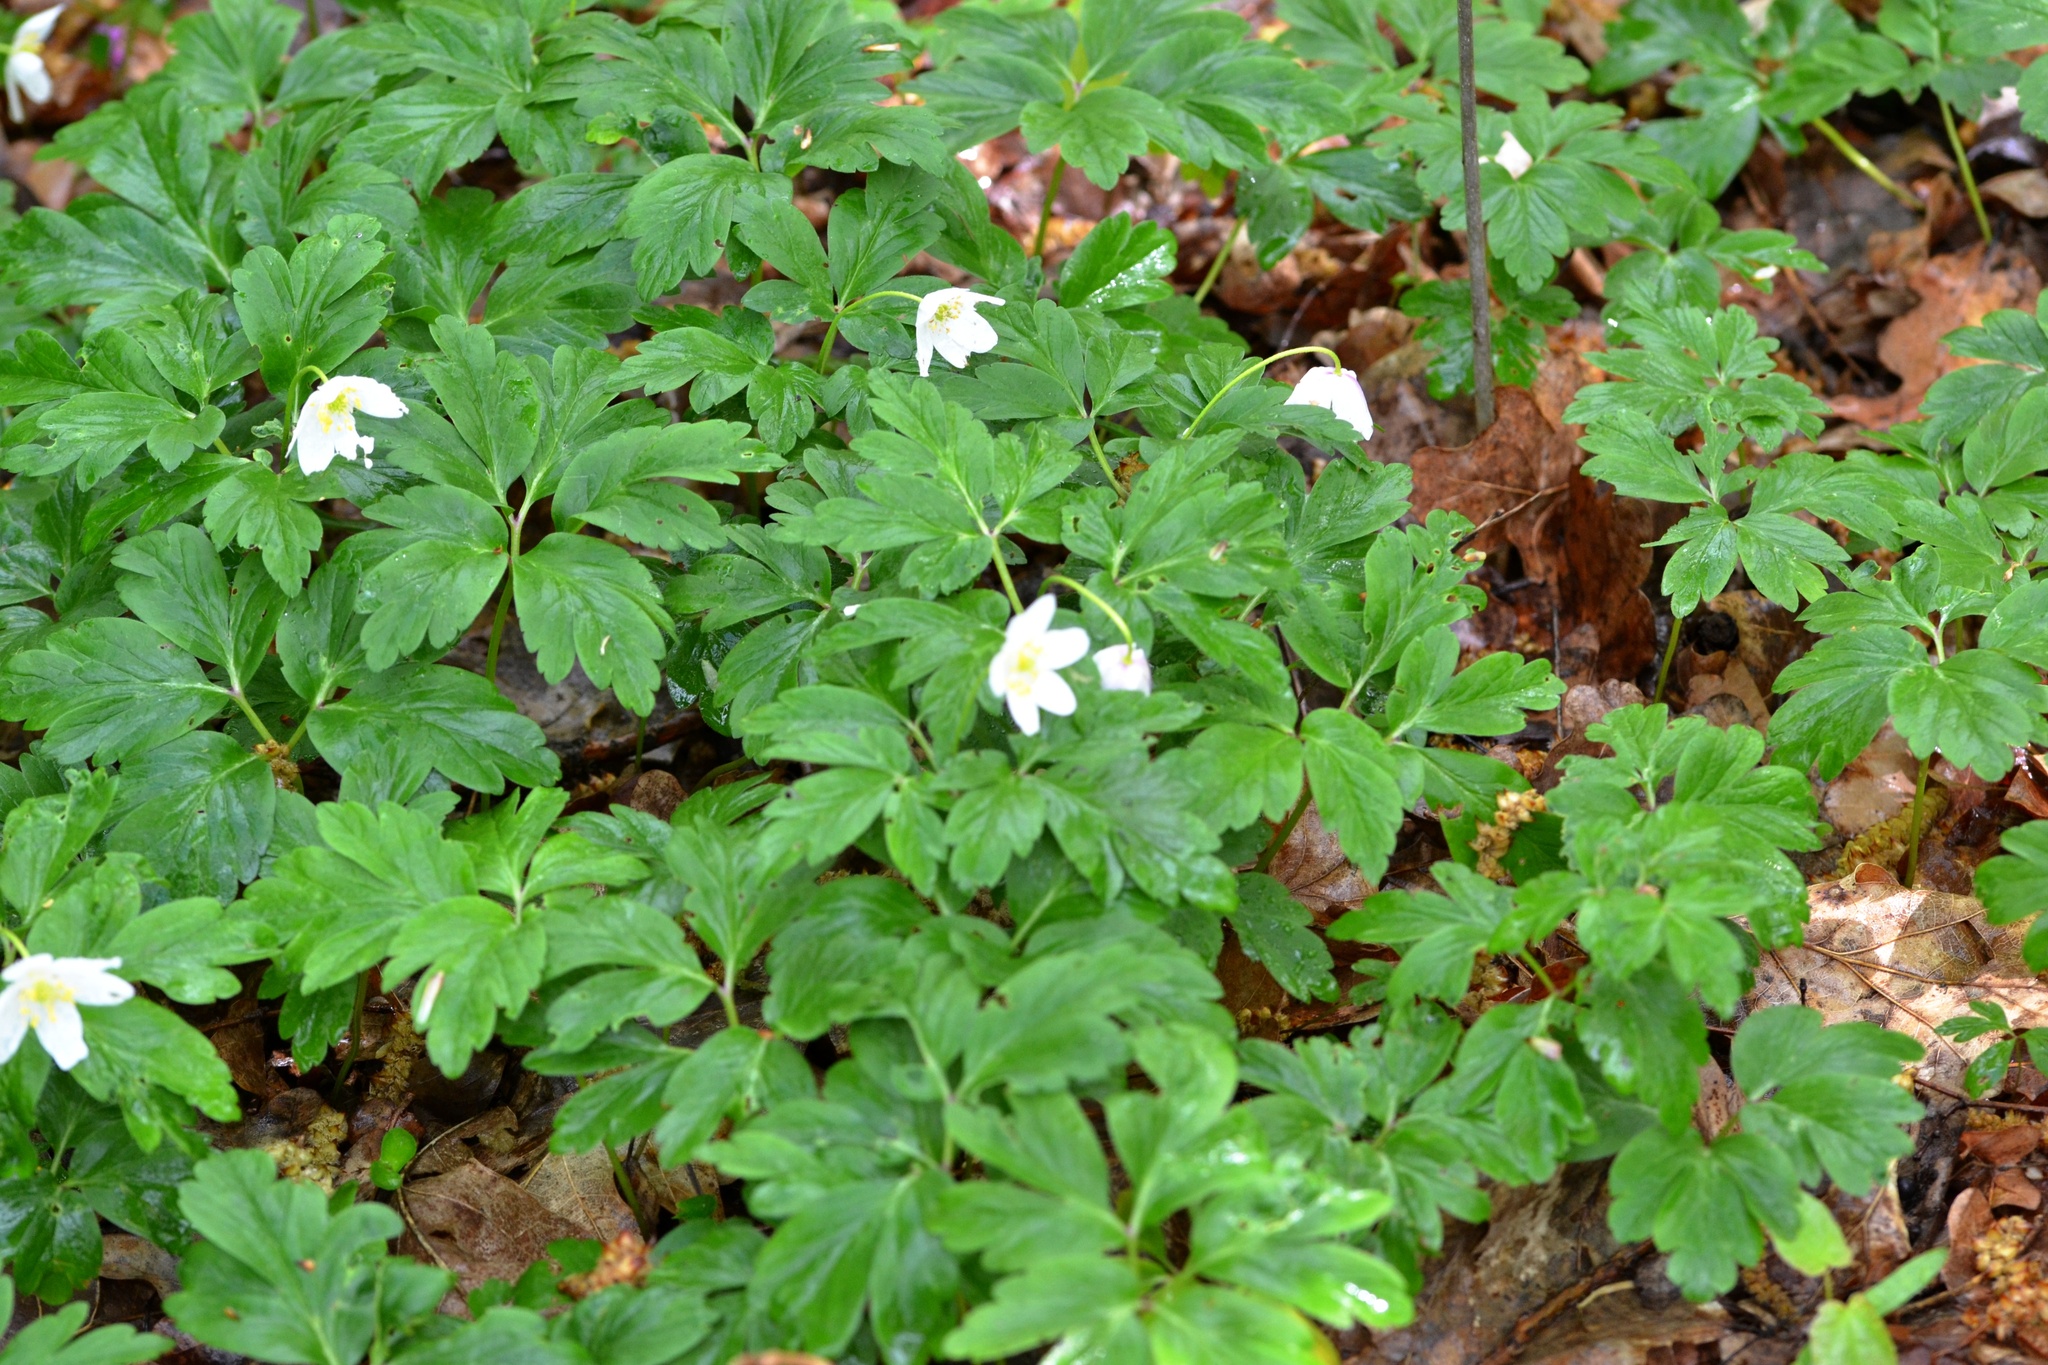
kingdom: Plantae
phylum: Tracheophyta
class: Magnoliopsida
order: Ranunculales
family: Ranunculaceae
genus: Anemone
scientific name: Anemone nemorosa
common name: Wood anemone
